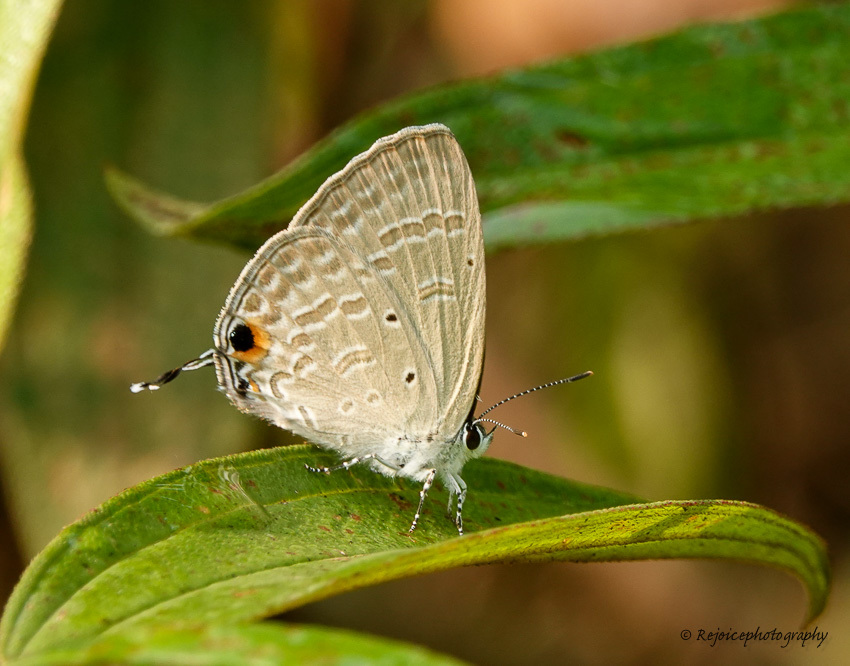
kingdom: Animalia
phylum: Arthropoda
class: Insecta
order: Lepidoptera
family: Lycaenidae
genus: Catochrysops
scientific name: Catochrysops strabo
